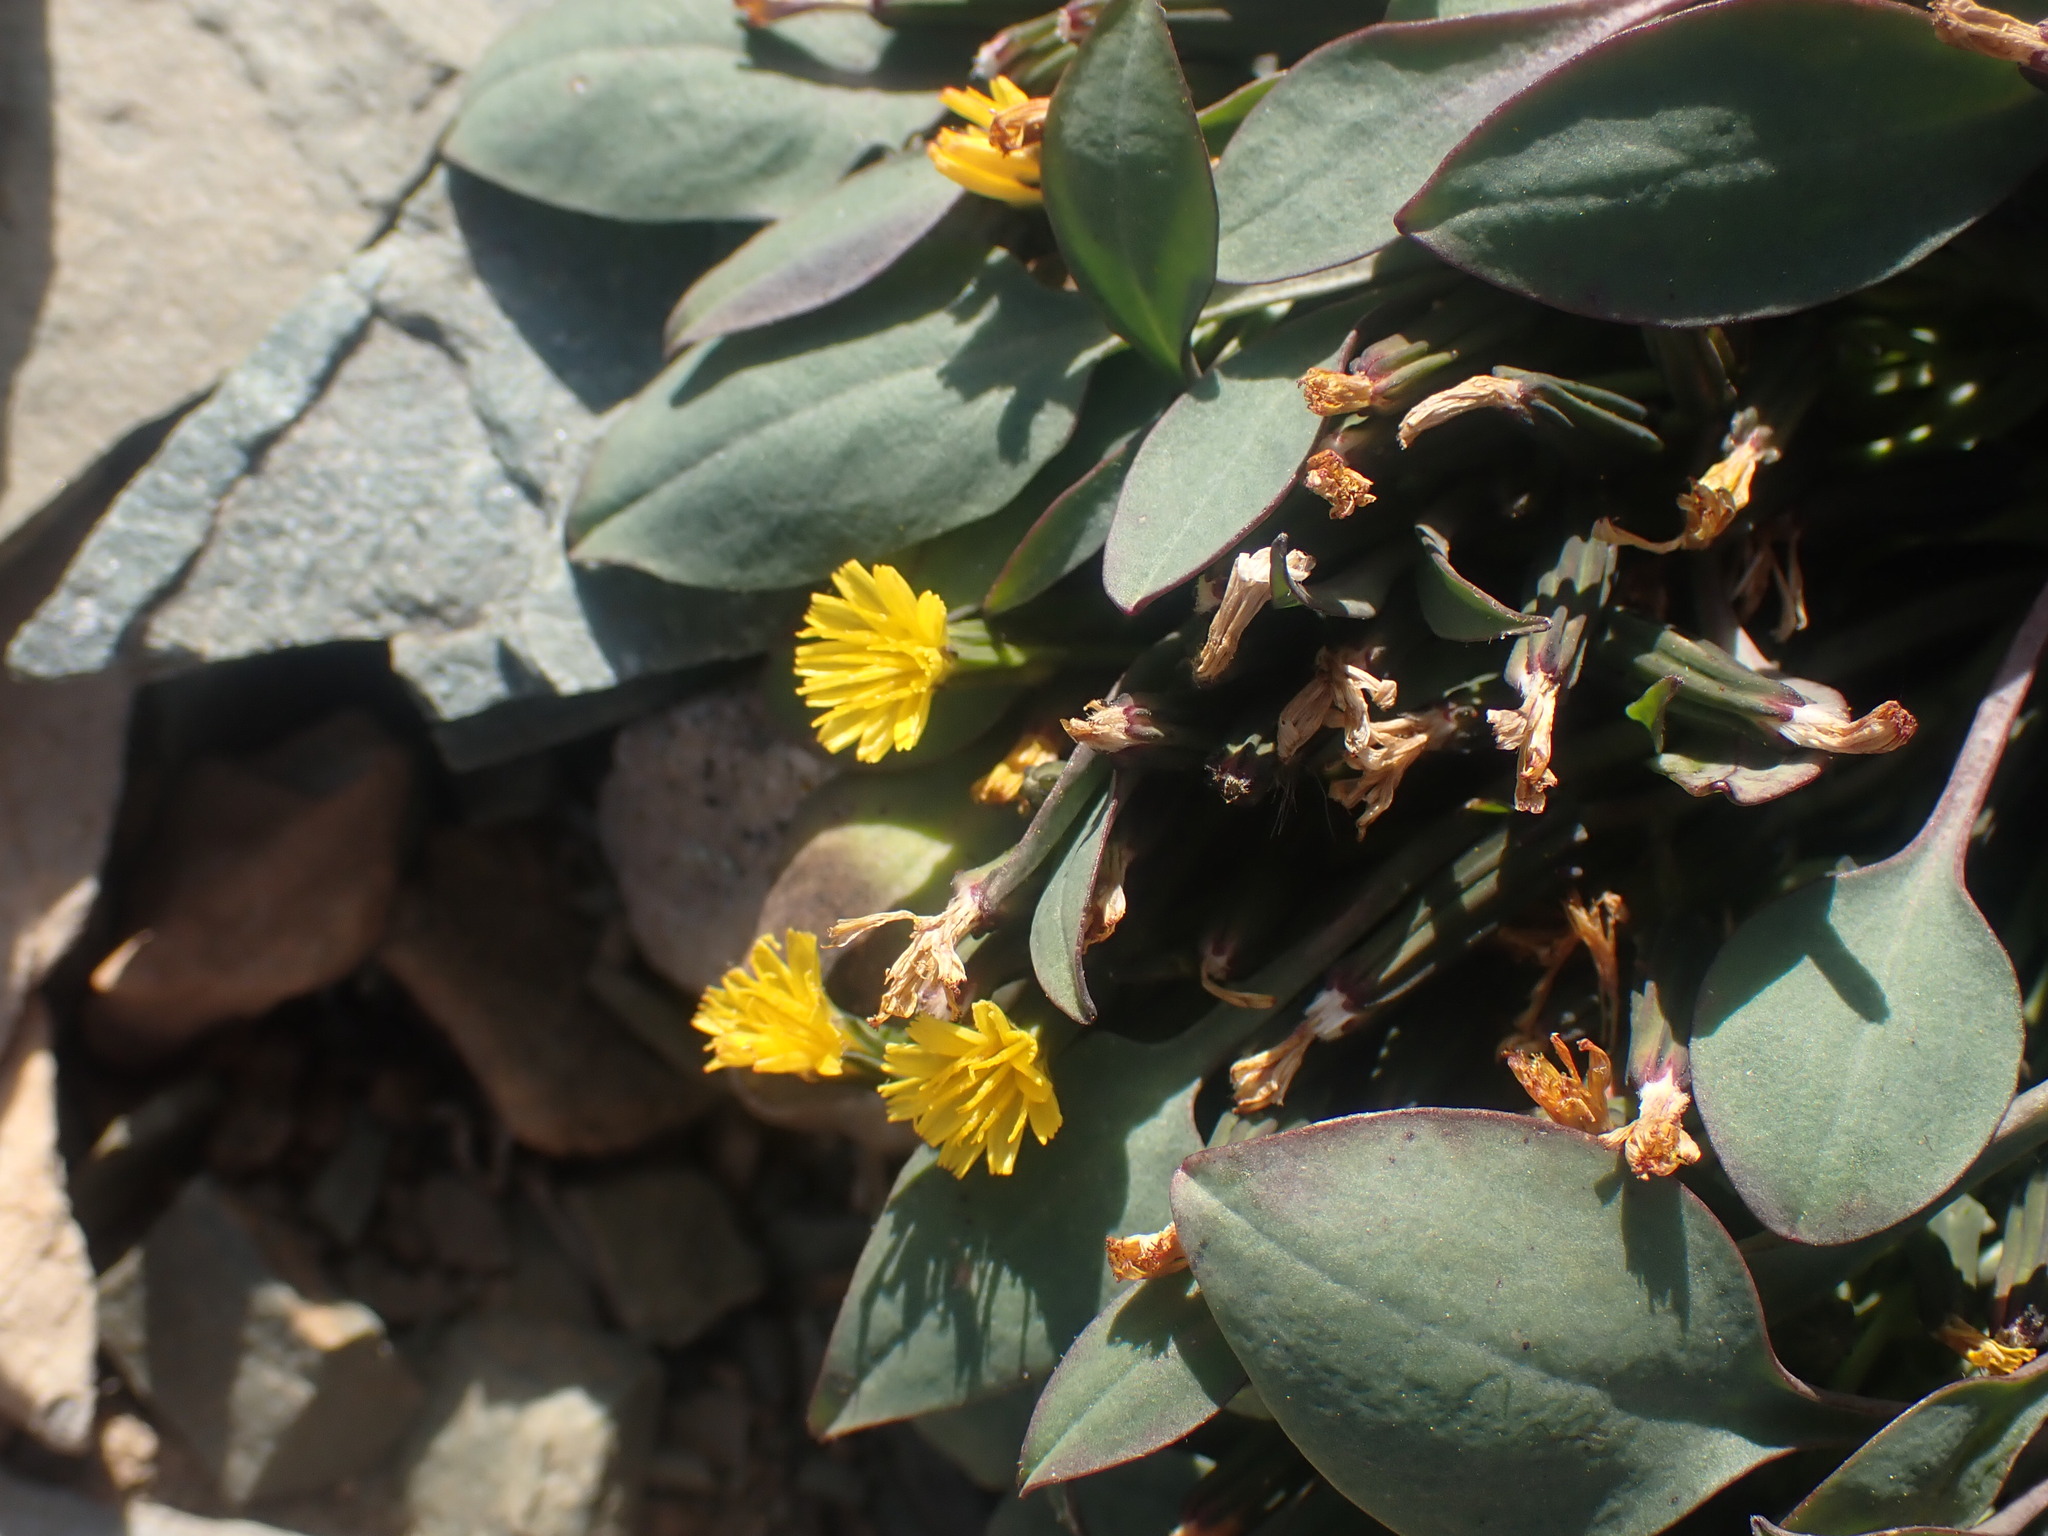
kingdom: Plantae
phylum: Tracheophyta
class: Magnoliopsida
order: Asterales
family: Asteraceae
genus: Askellia
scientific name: Askellia pygmaea
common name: Dwarf alpine hawksbeard
